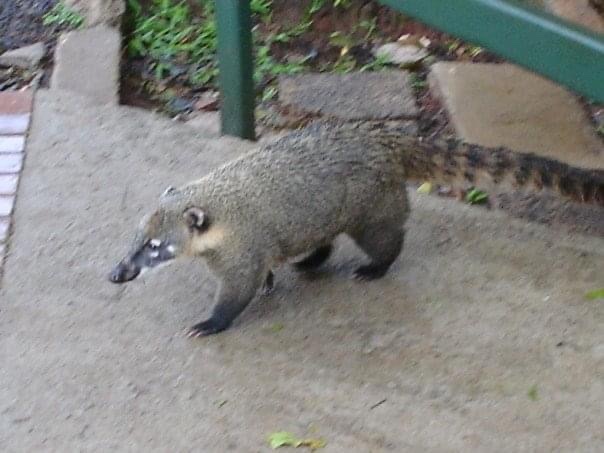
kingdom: Animalia
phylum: Chordata
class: Mammalia
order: Carnivora
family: Procyonidae
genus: Nasua
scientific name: Nasua nasua
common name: South american coati
